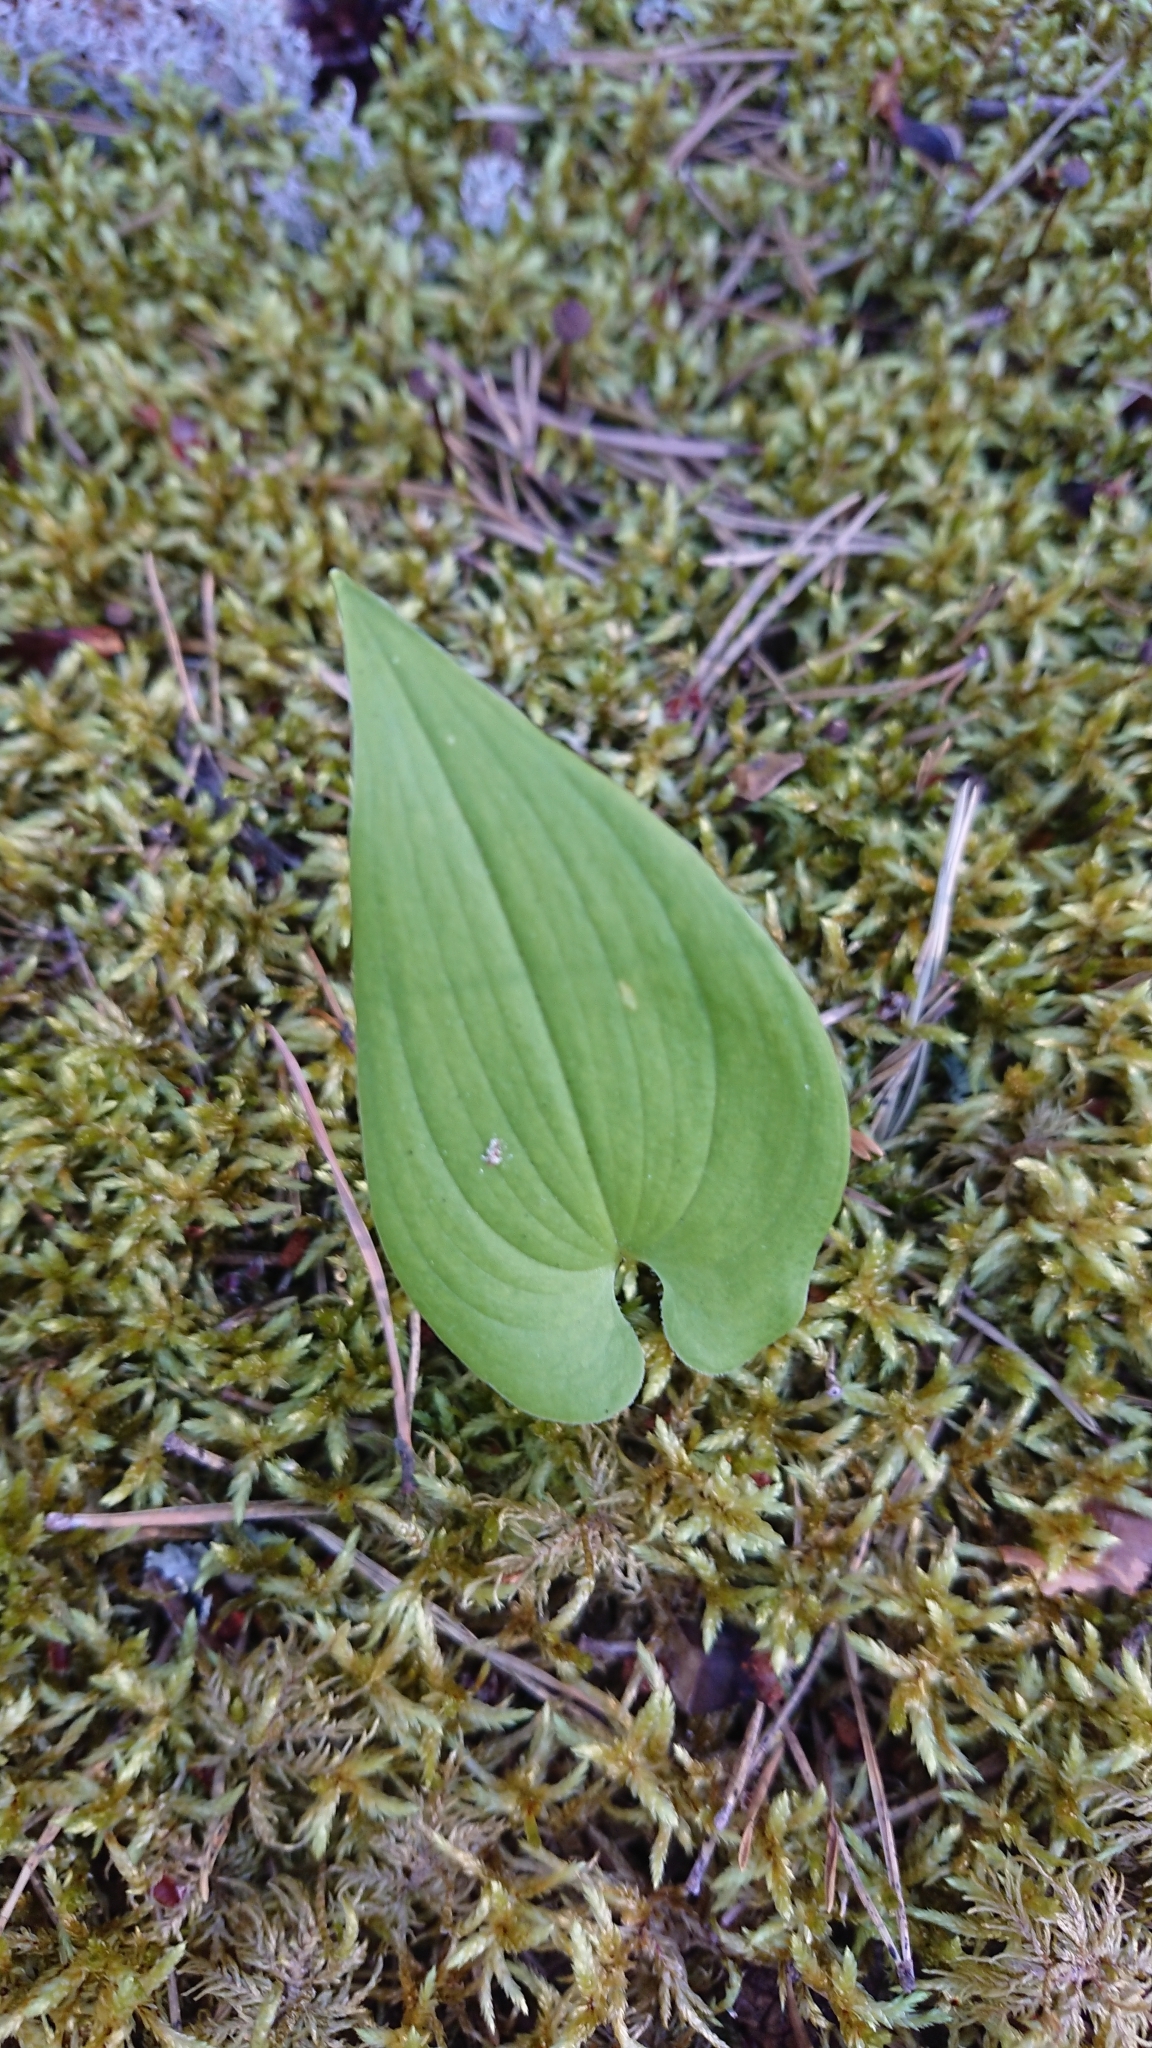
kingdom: Plantae
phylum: Tracheophyta
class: Liliopsida
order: Asparagales
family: Asparagaceae
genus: Maianthemum
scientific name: Maianthemum bifolium
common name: May lily
